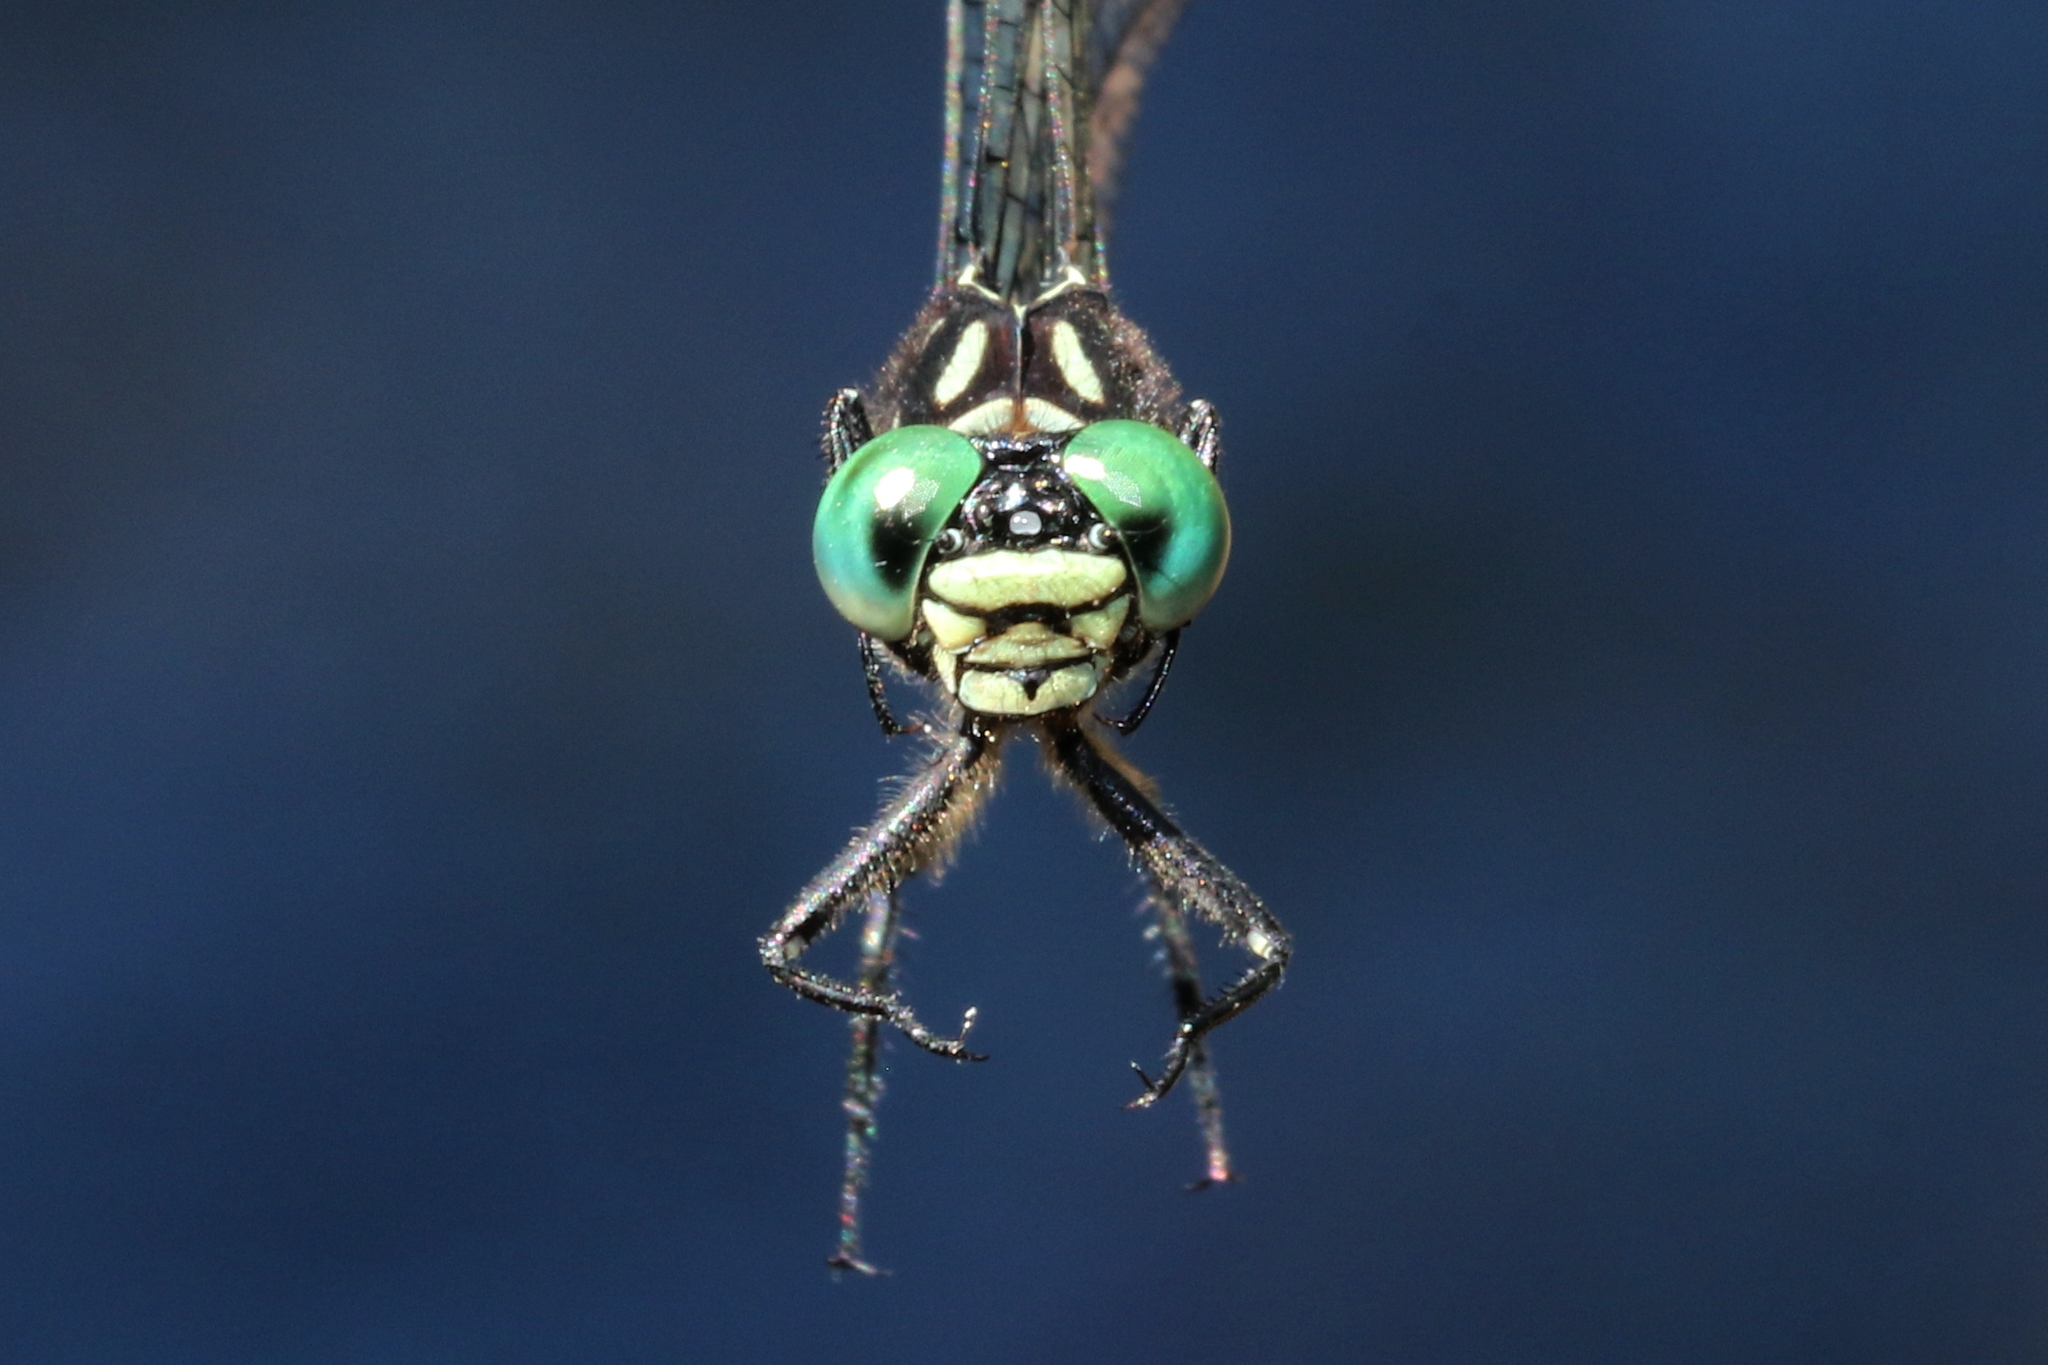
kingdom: Animalia
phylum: Arthropoda
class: Insecta
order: Odonata
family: Gomphidae
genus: Stylogomphus
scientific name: Stylogomphus albistylus
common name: Eastern least clubtail
